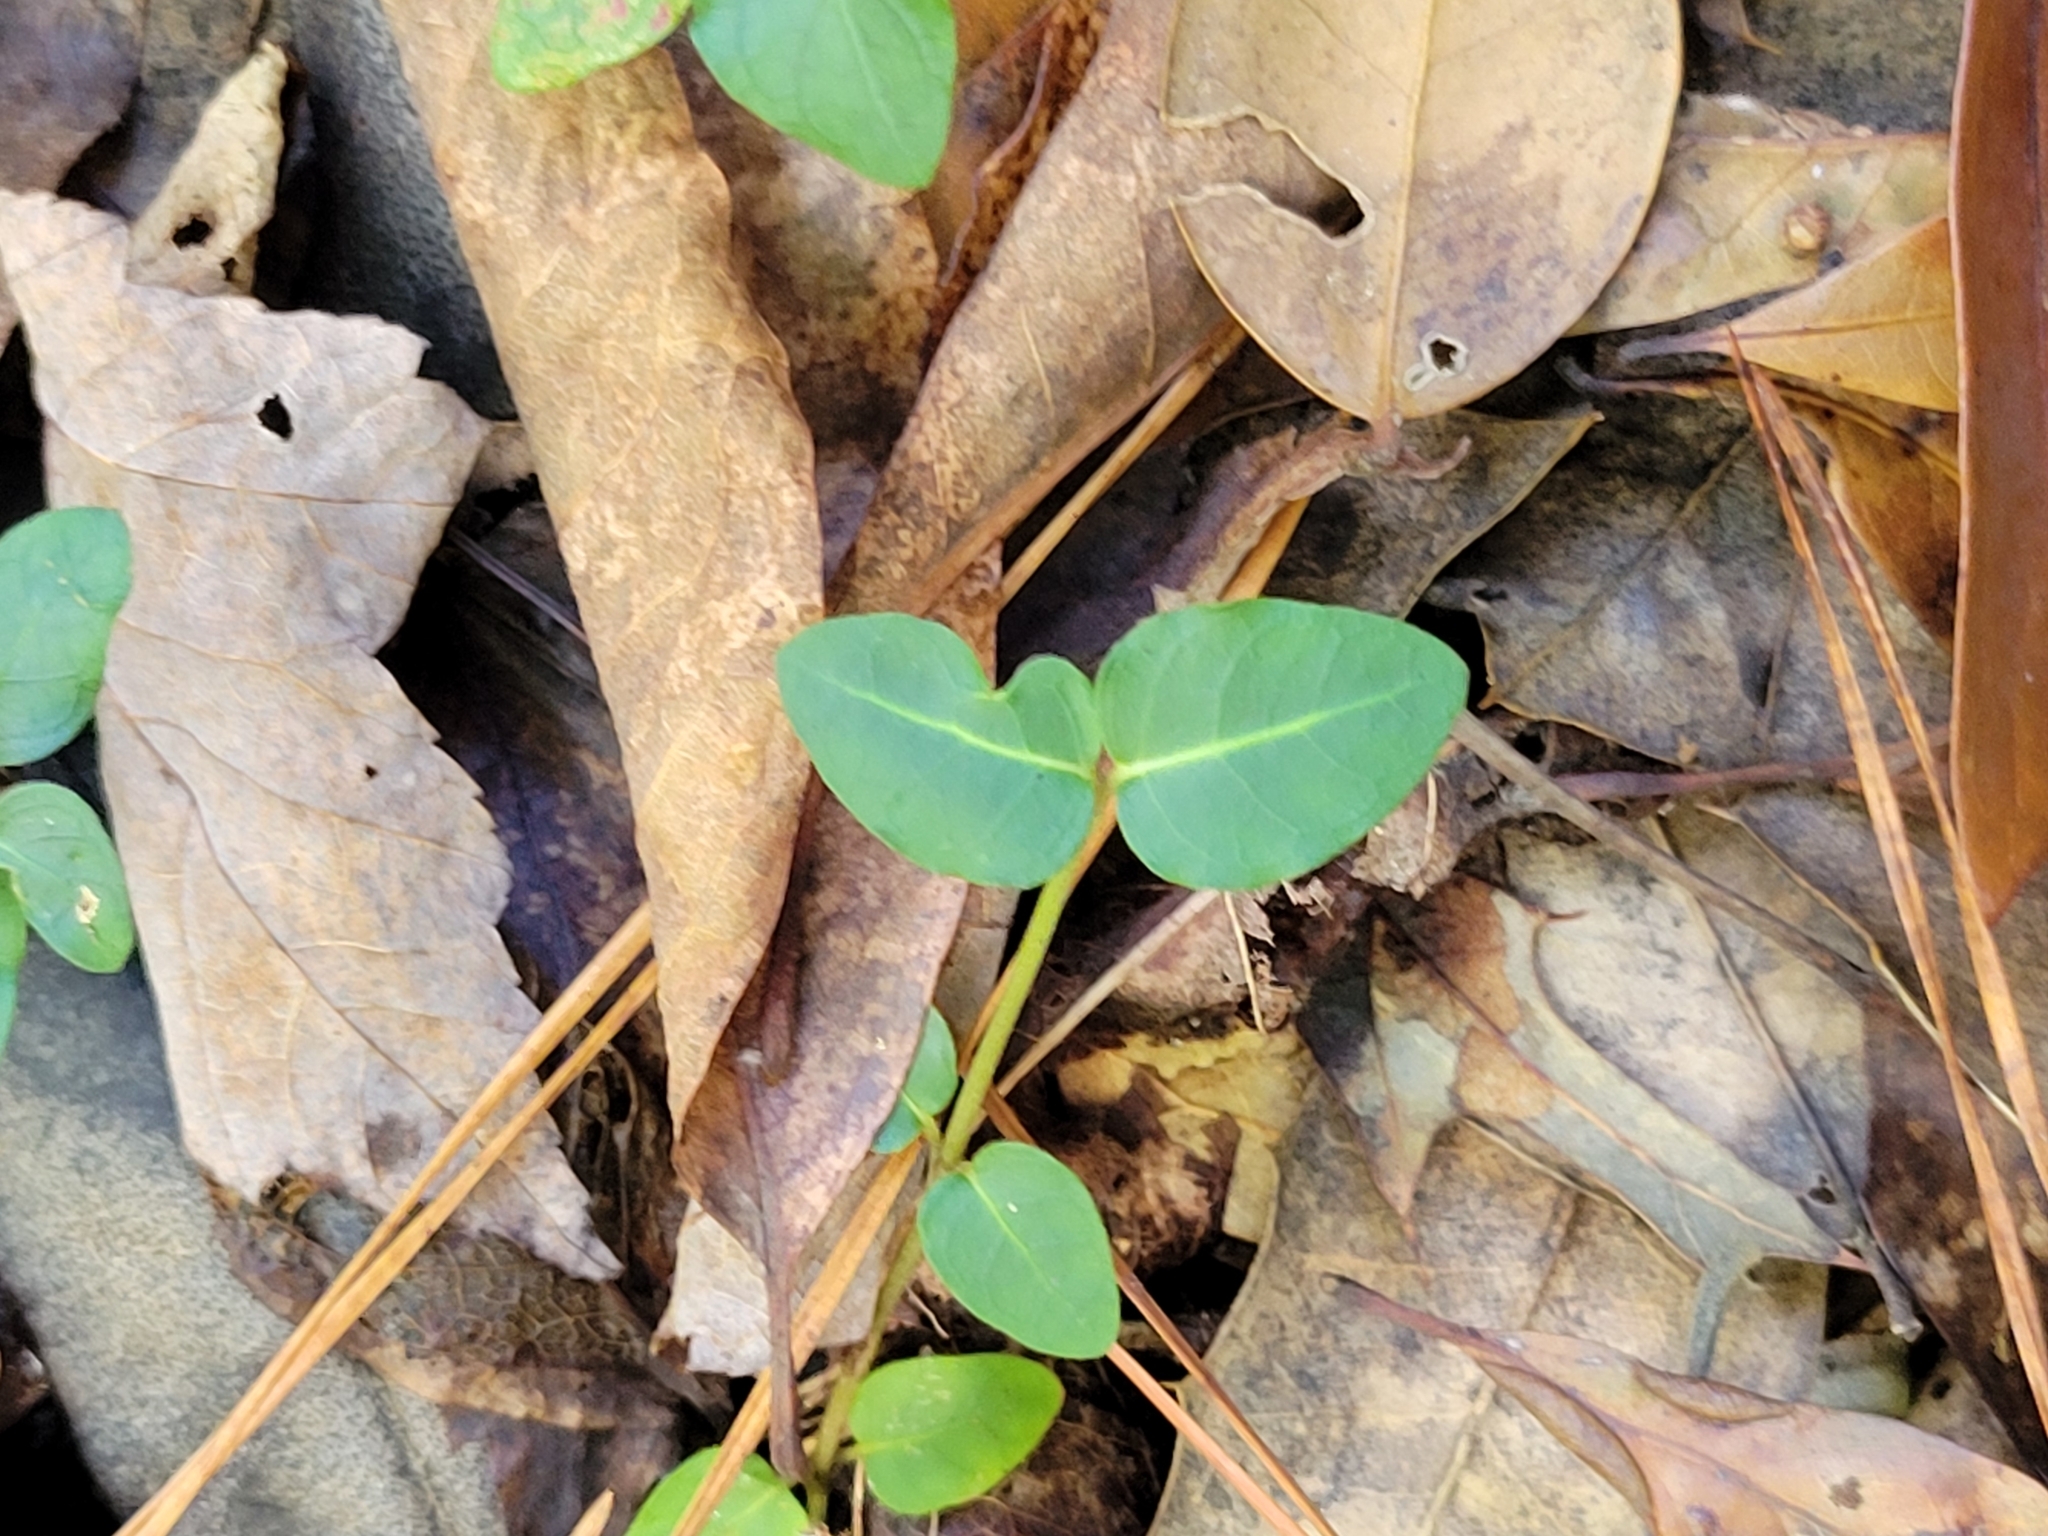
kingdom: Plantae
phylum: Tracheophyta
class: Magnoliopsida
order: Gentianales
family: Rubiaceae
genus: Mitchella
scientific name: Mitchella repens
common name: Partridge-berry
